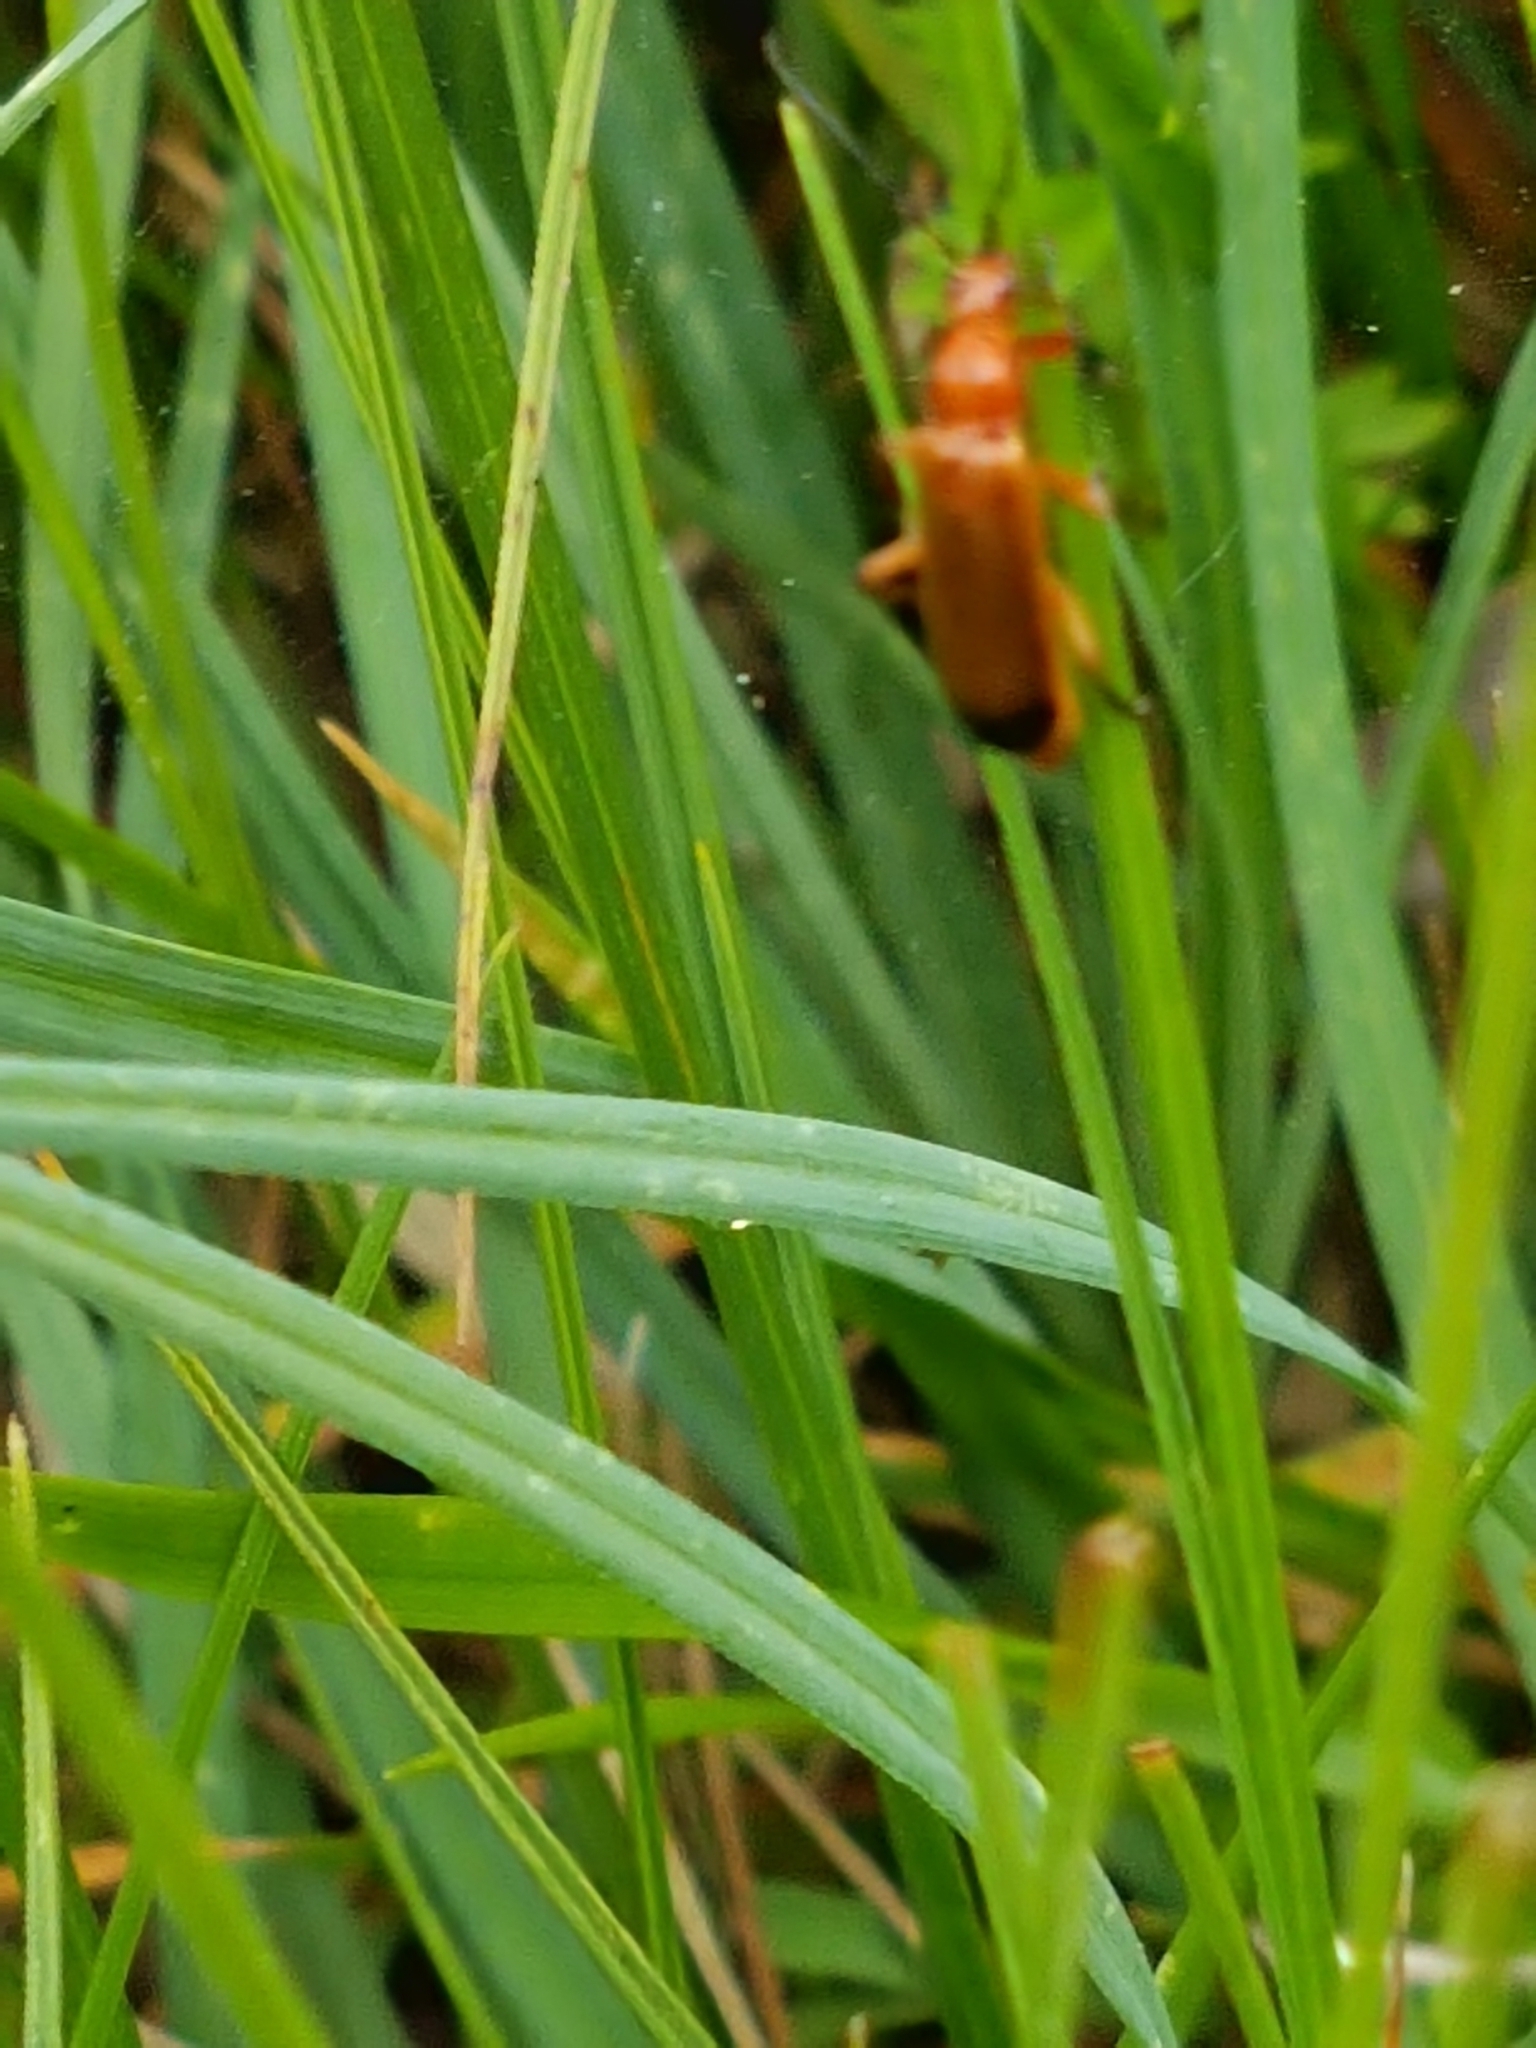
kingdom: Animalia
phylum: Arthropoda
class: Insecta
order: Coleoptera
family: Cantharidae
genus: Rhagonycha
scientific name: Rhagonycha fulva
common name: Common red soldier beetle
